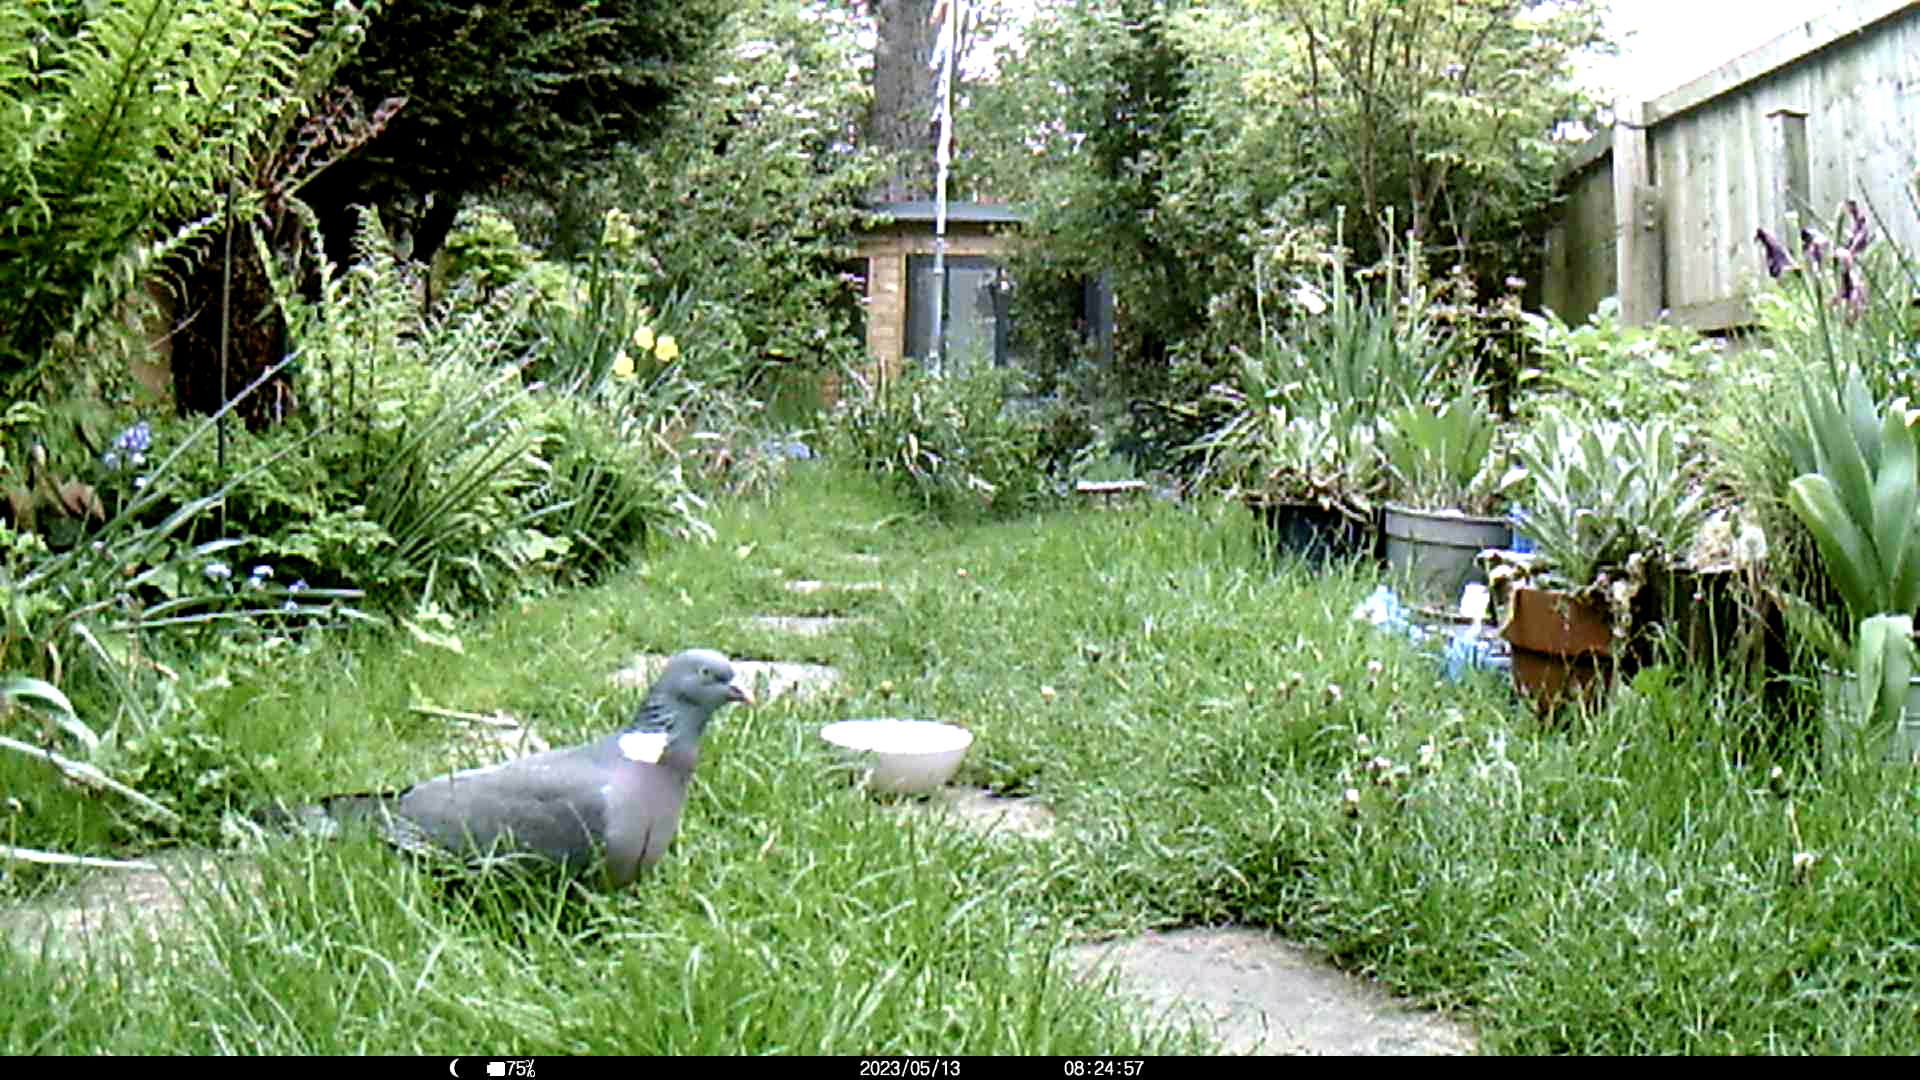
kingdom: Animalia
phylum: Chordata
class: Aves
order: Columbiformes
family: Columbidae
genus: Columba
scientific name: Columba palumbus
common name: Common wood pigeon
